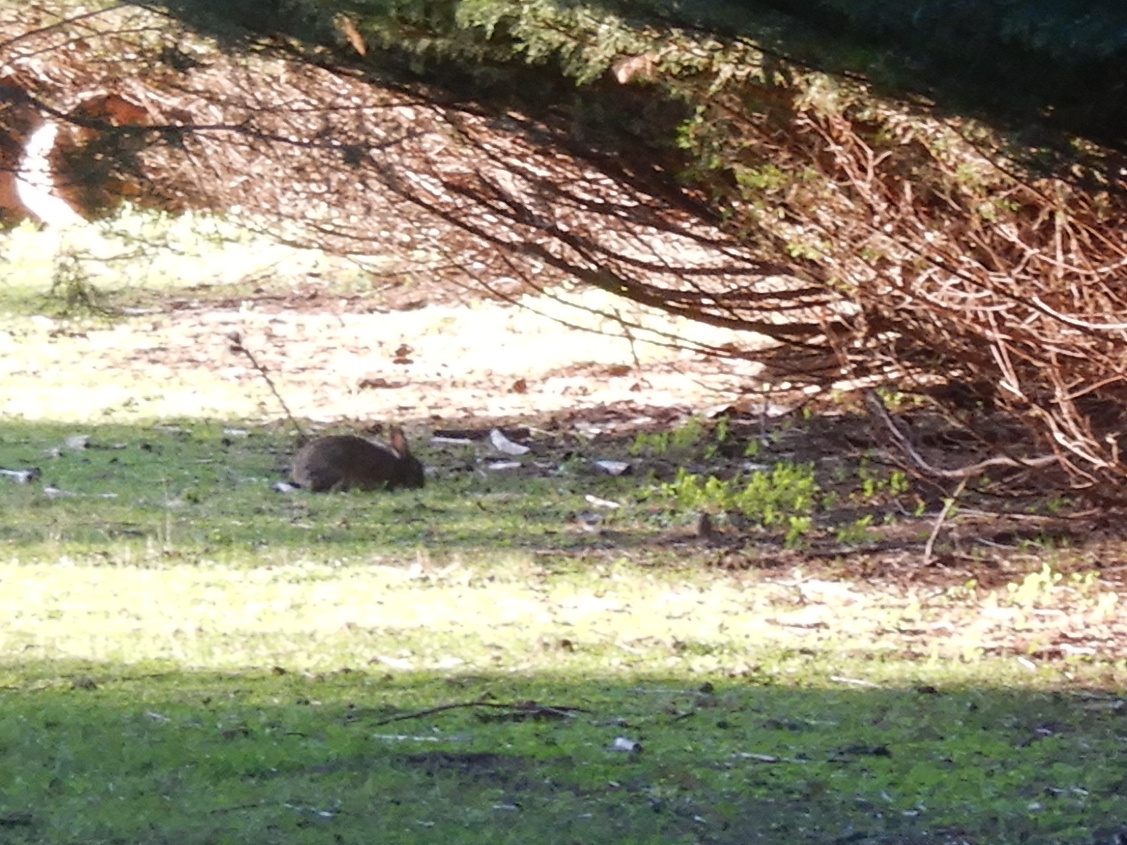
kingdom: Animalia
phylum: Chordata
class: Mammalia
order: Lagomorpha
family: Leporidae
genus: Oryctolagus
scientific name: Oryctolagus cuniculus
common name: European rabbit
